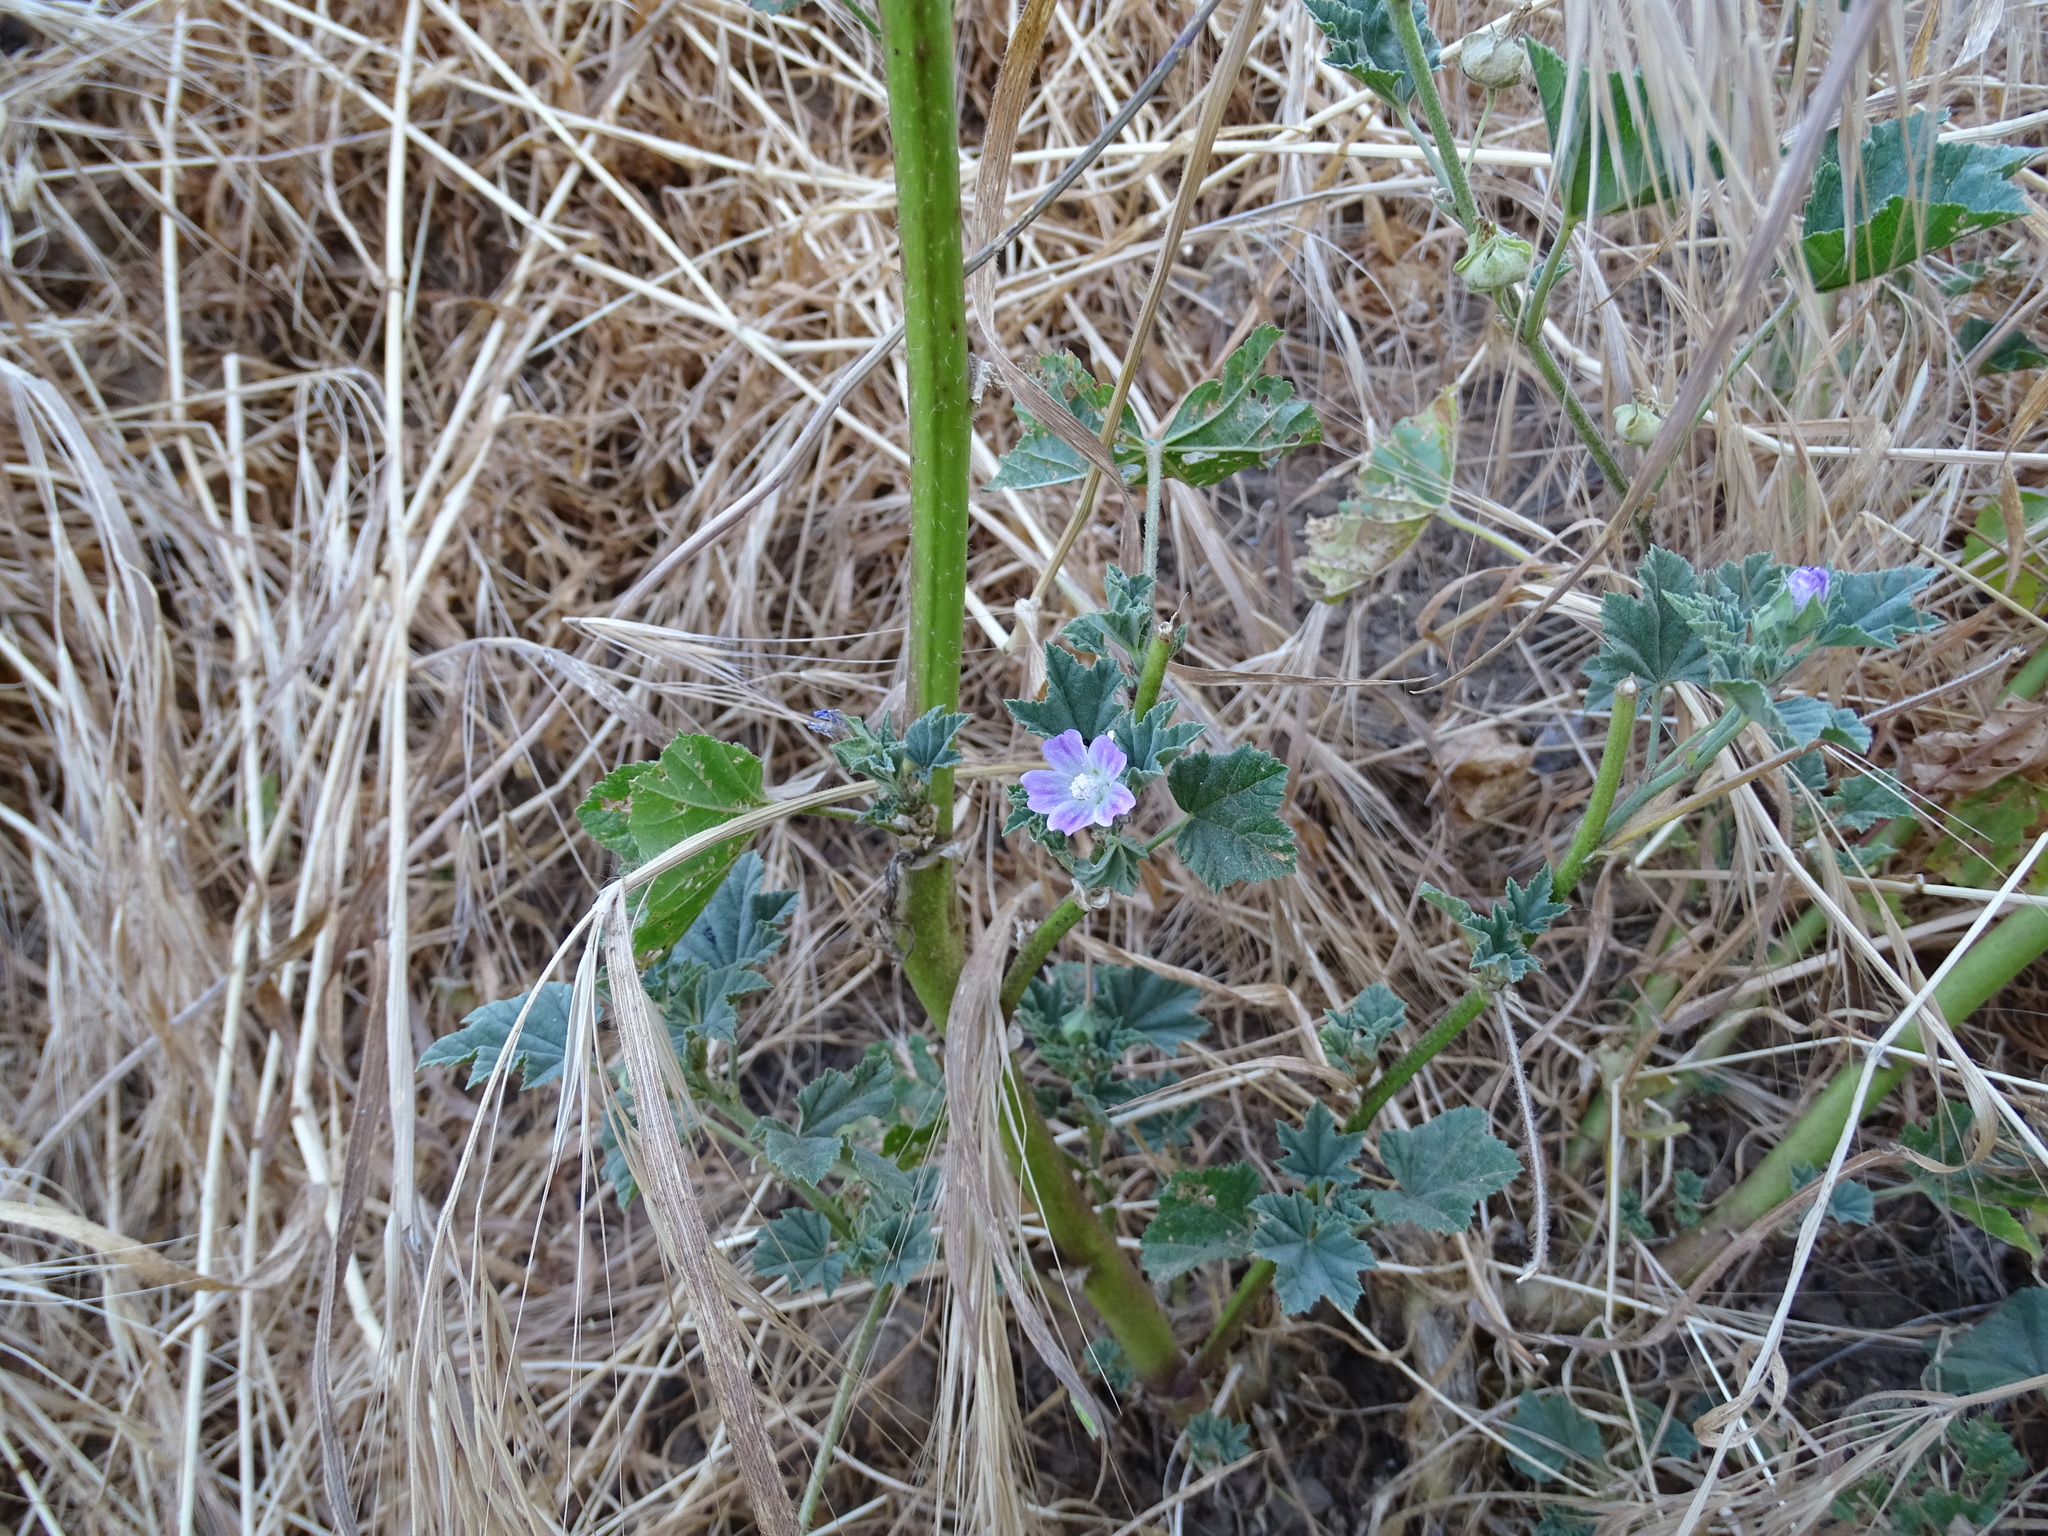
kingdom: Plantae
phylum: Tracheophyta
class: Magnoliopsida
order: Malvales
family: Malvaceae
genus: Malva
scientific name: Malva multiflora
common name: Cheeseweed
